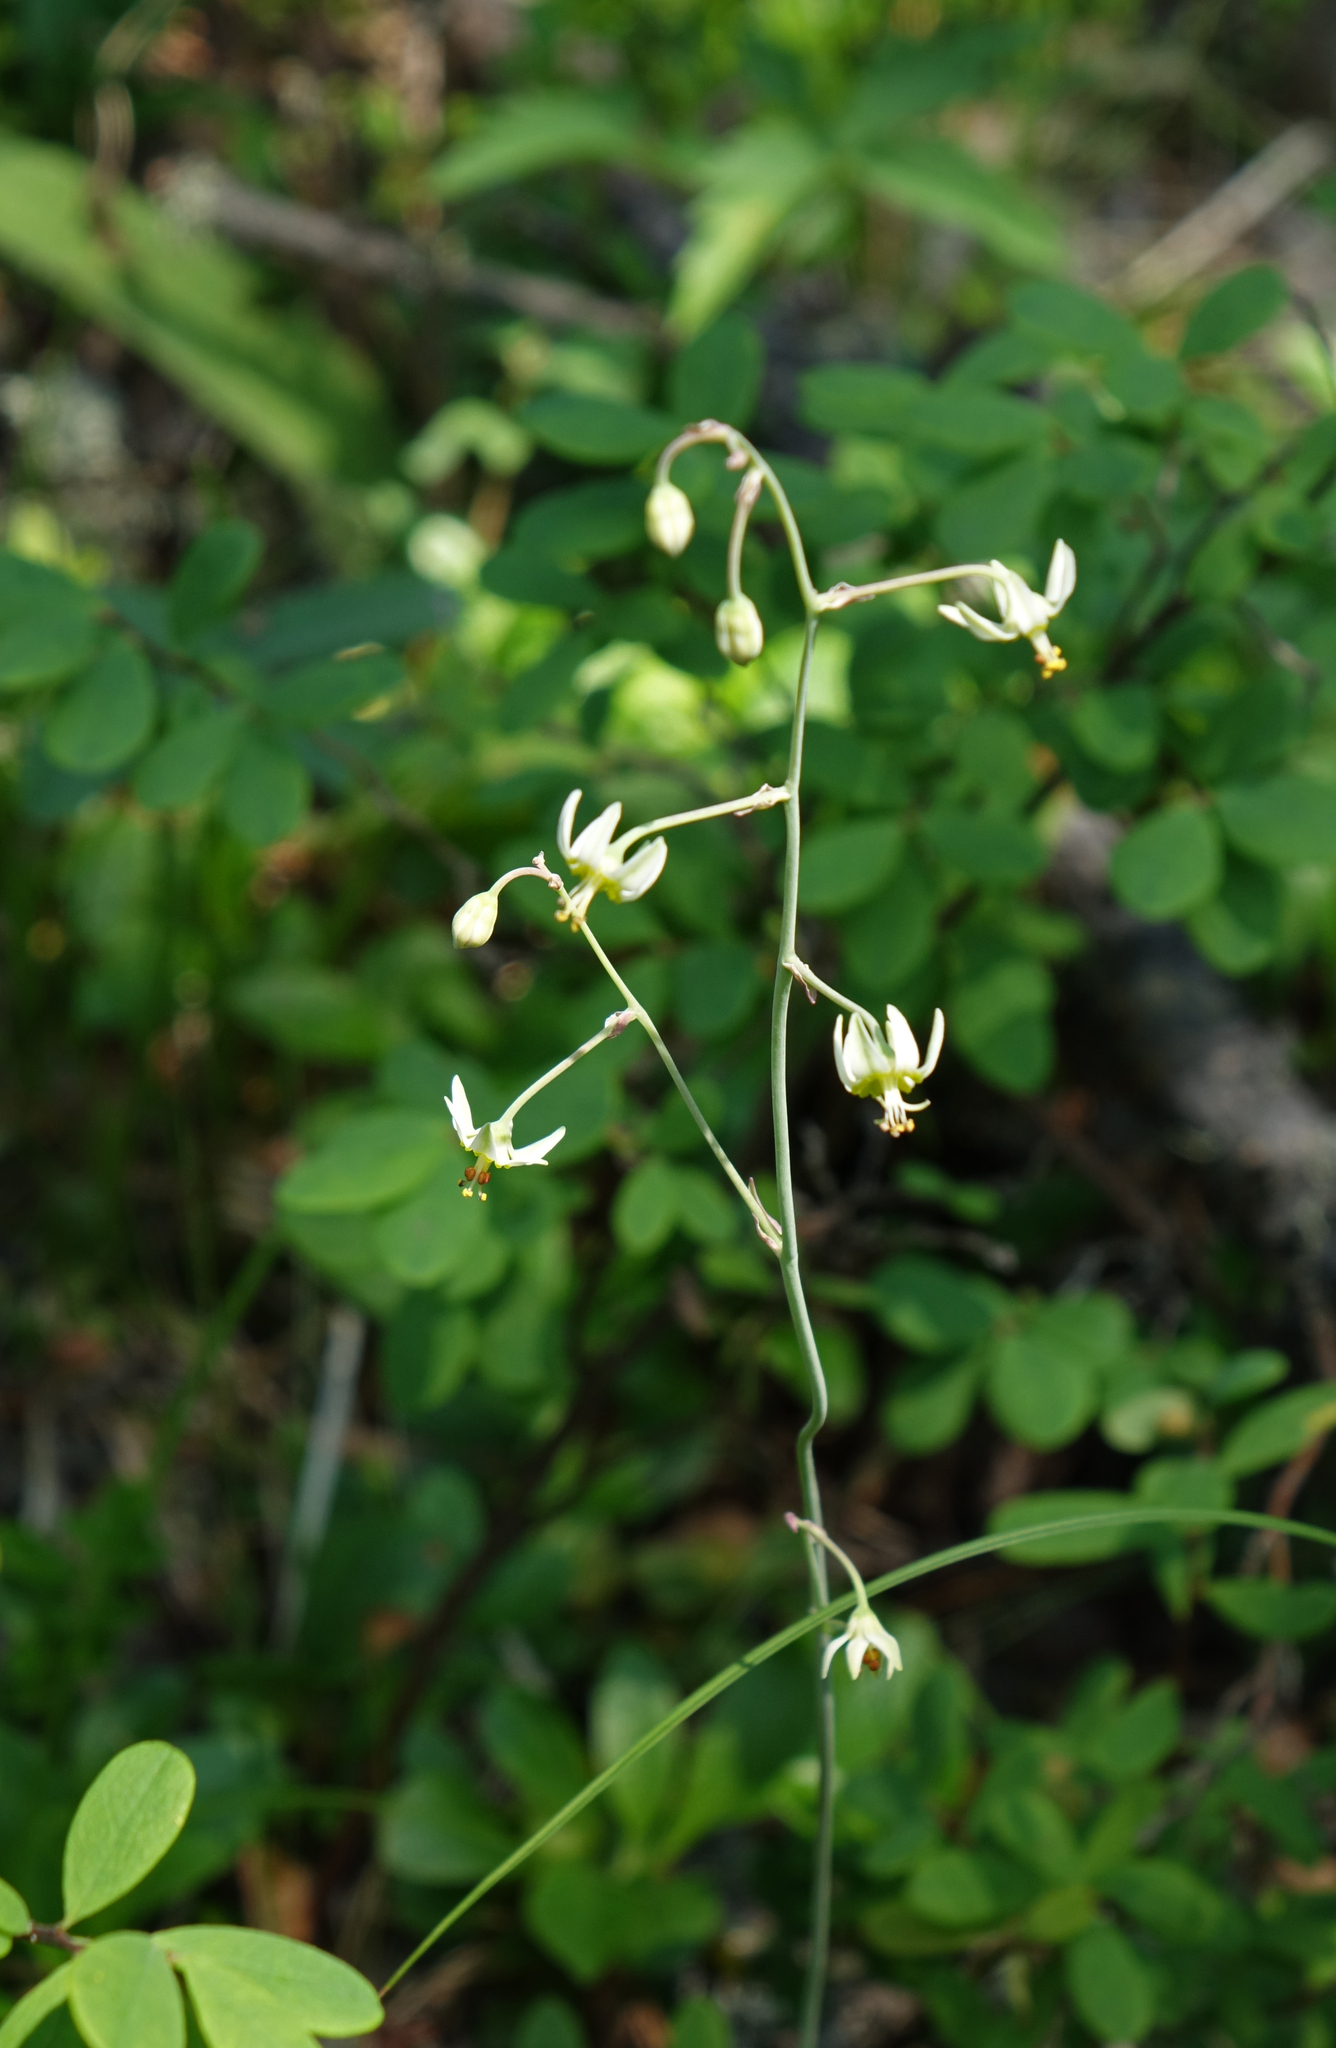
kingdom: Plantae
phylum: Tracheophyta
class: Liliopsida
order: Liliales
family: Melanthiaceae
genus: Anticlea
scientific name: Anticlea sibirica
